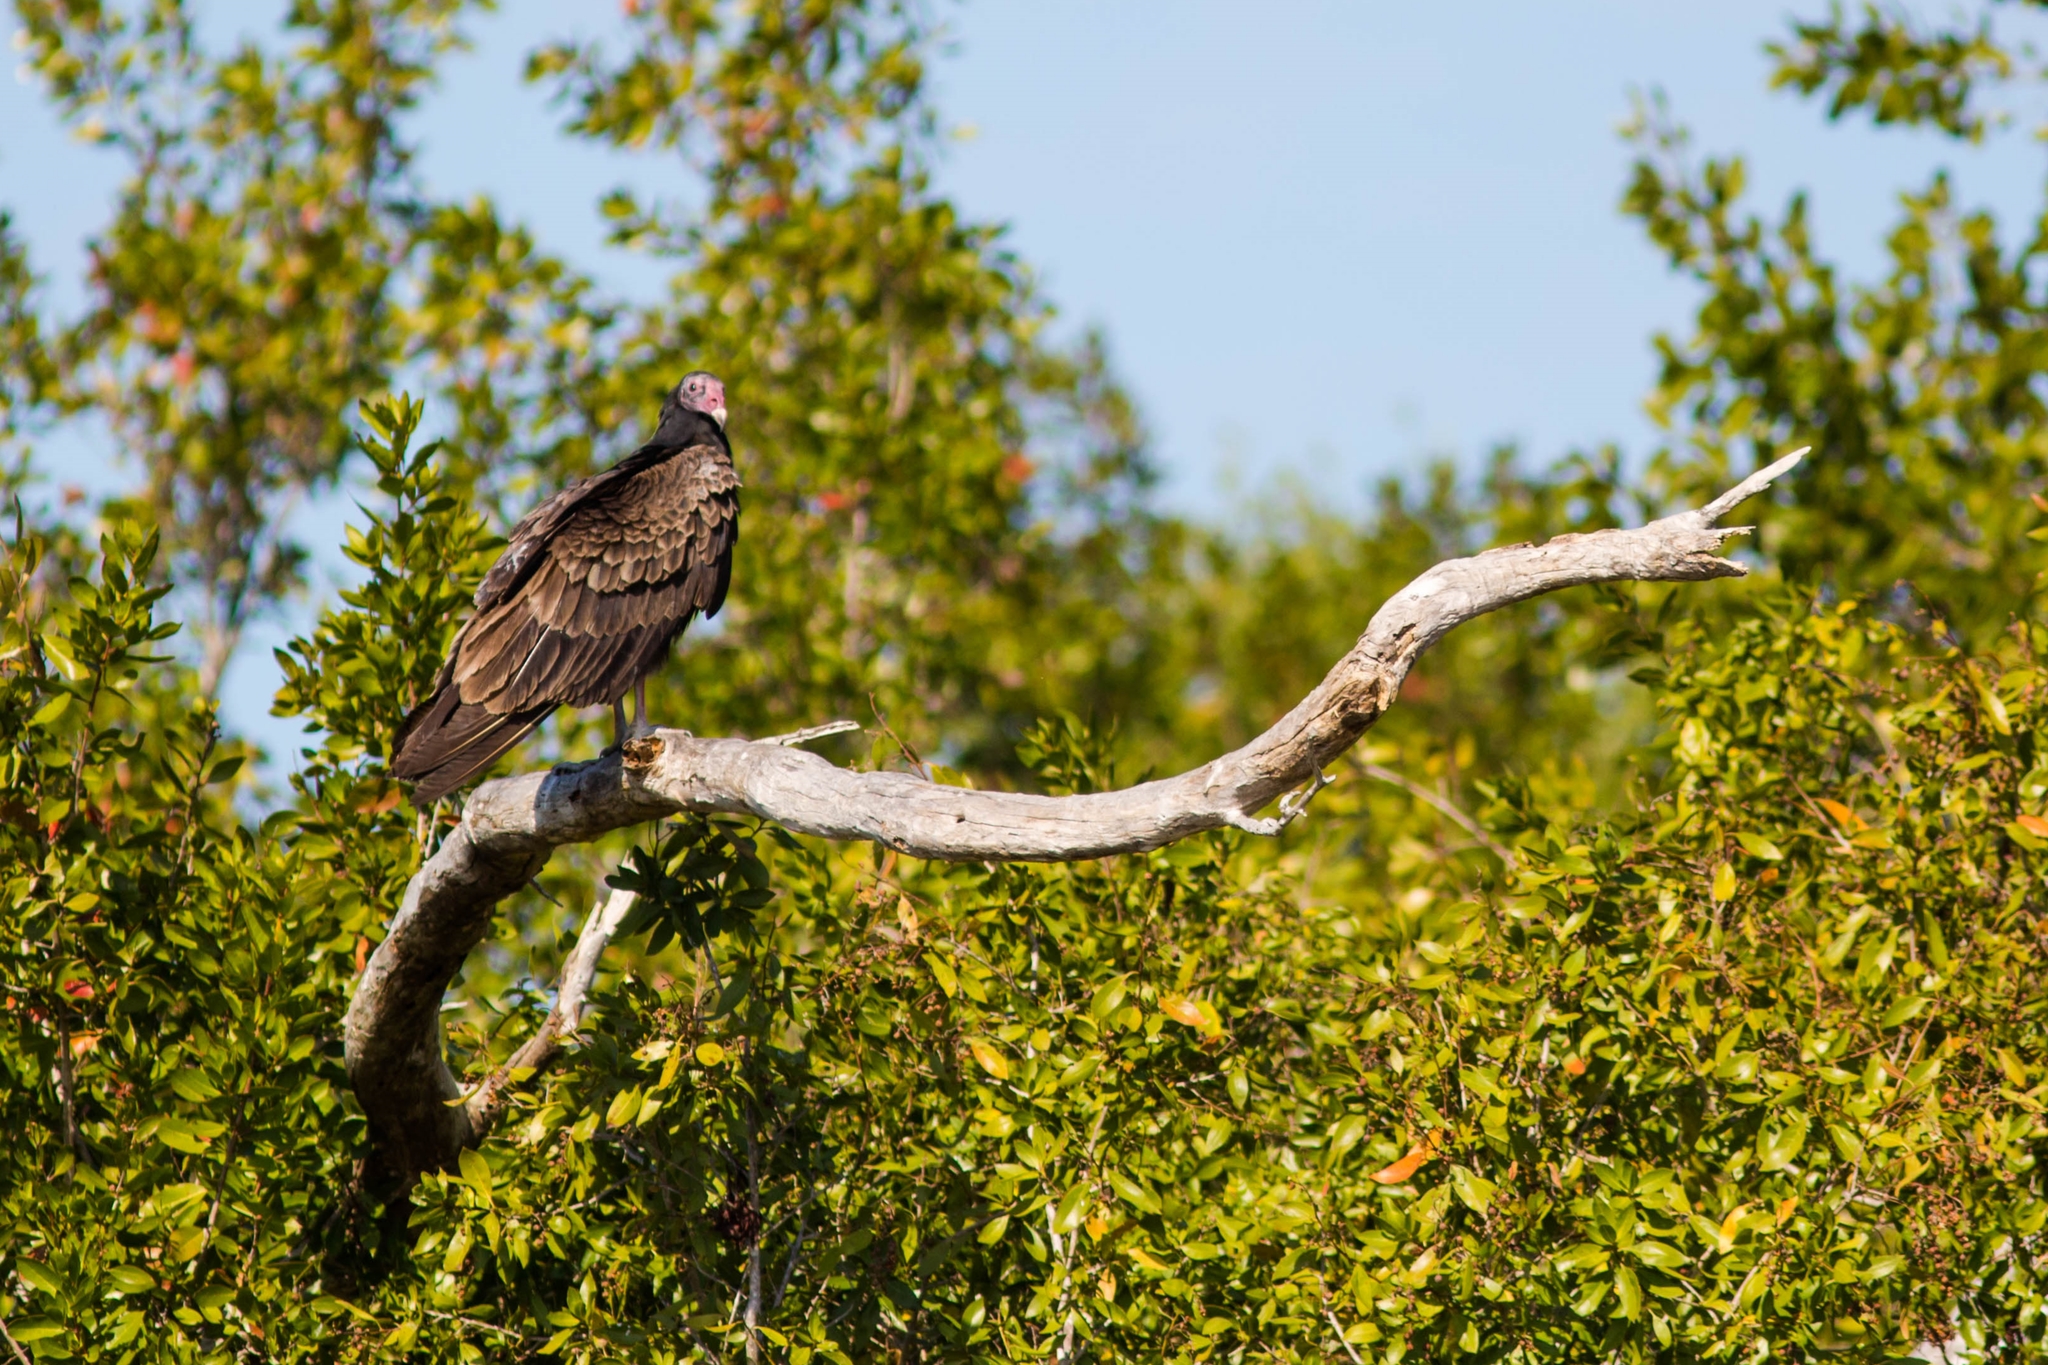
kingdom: Animalia
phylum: Chordata
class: Aves
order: Accipitriformes
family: Cathartidae
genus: Cathartes
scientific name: Cathartes aura
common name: Turkey vulture
